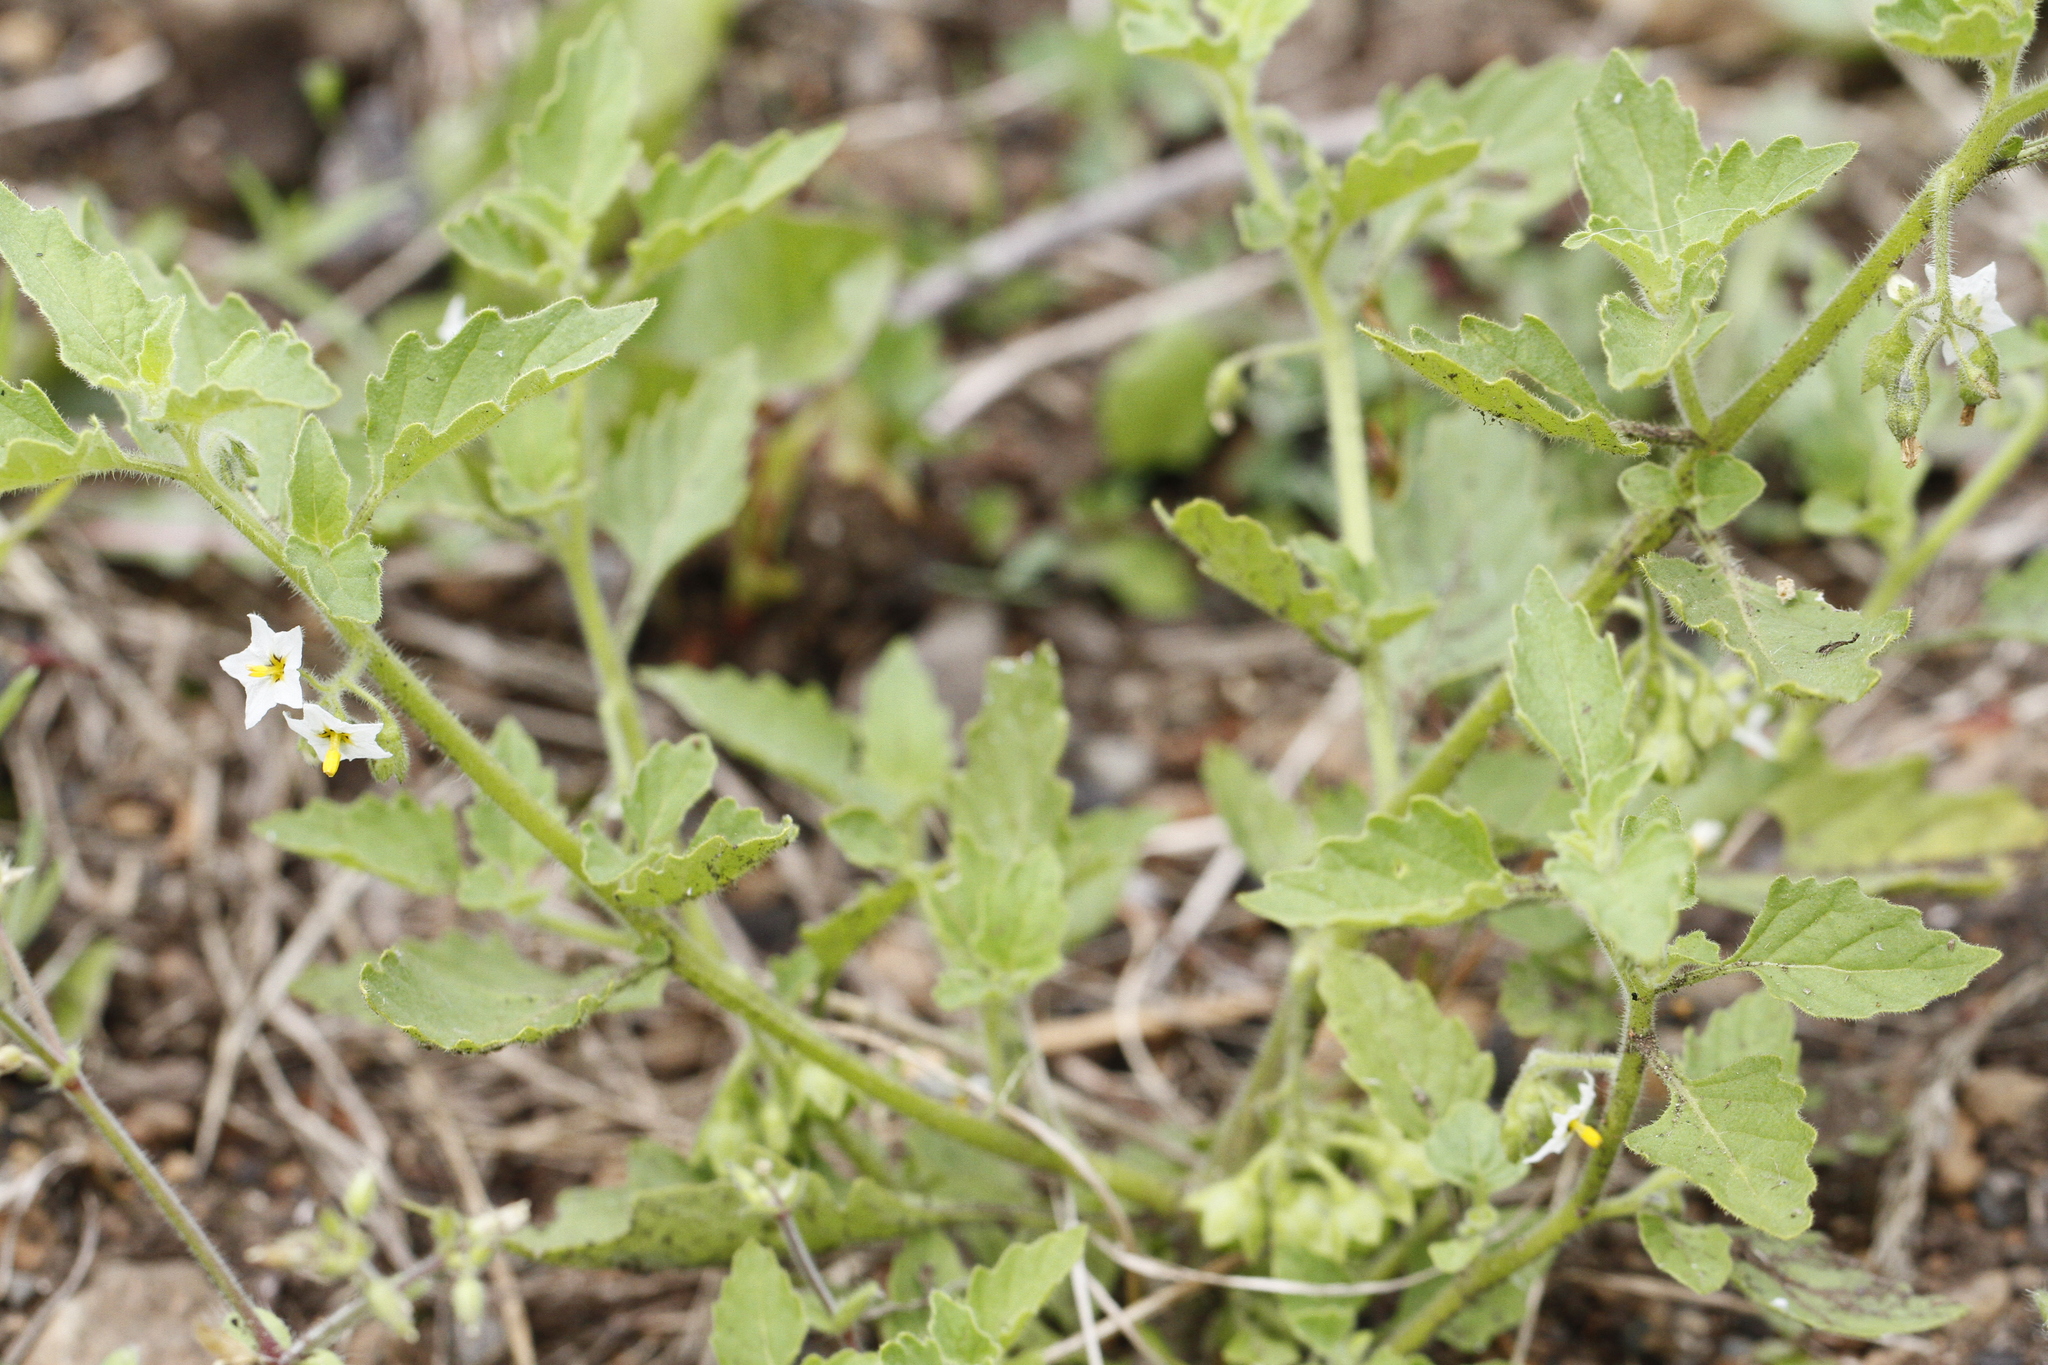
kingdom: Plantae
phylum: Tracheophyta
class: Magnoliopsida
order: Solanales
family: Solanaceae
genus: Solanum
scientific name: Solanum nitidibaccatum
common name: Hairy nightshade
